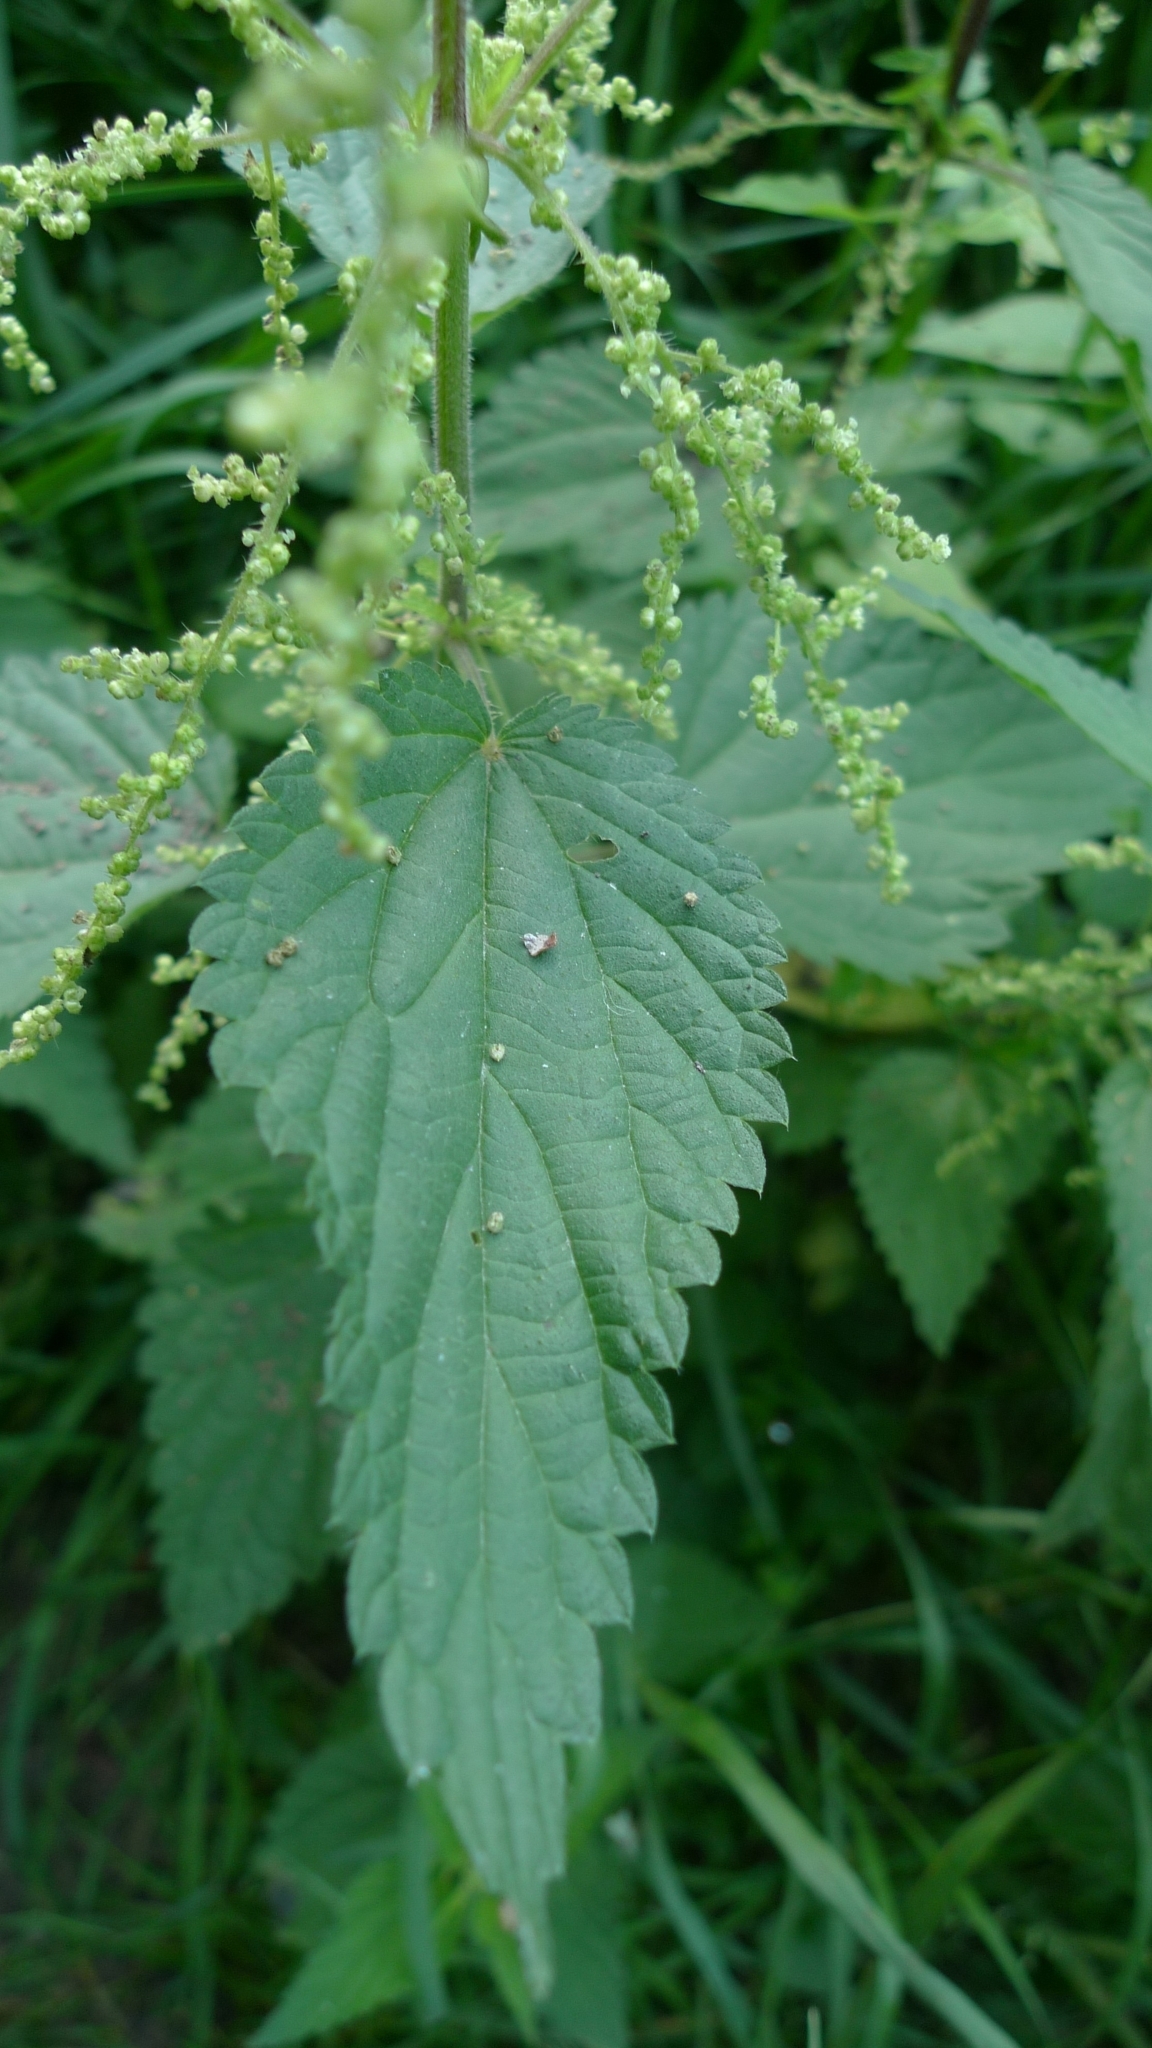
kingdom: Plantae
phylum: Tracheophyta
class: Magnoliopsida
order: Rosales
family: Urticaceae
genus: Urtica
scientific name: Urtica dioica
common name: Common nettle
